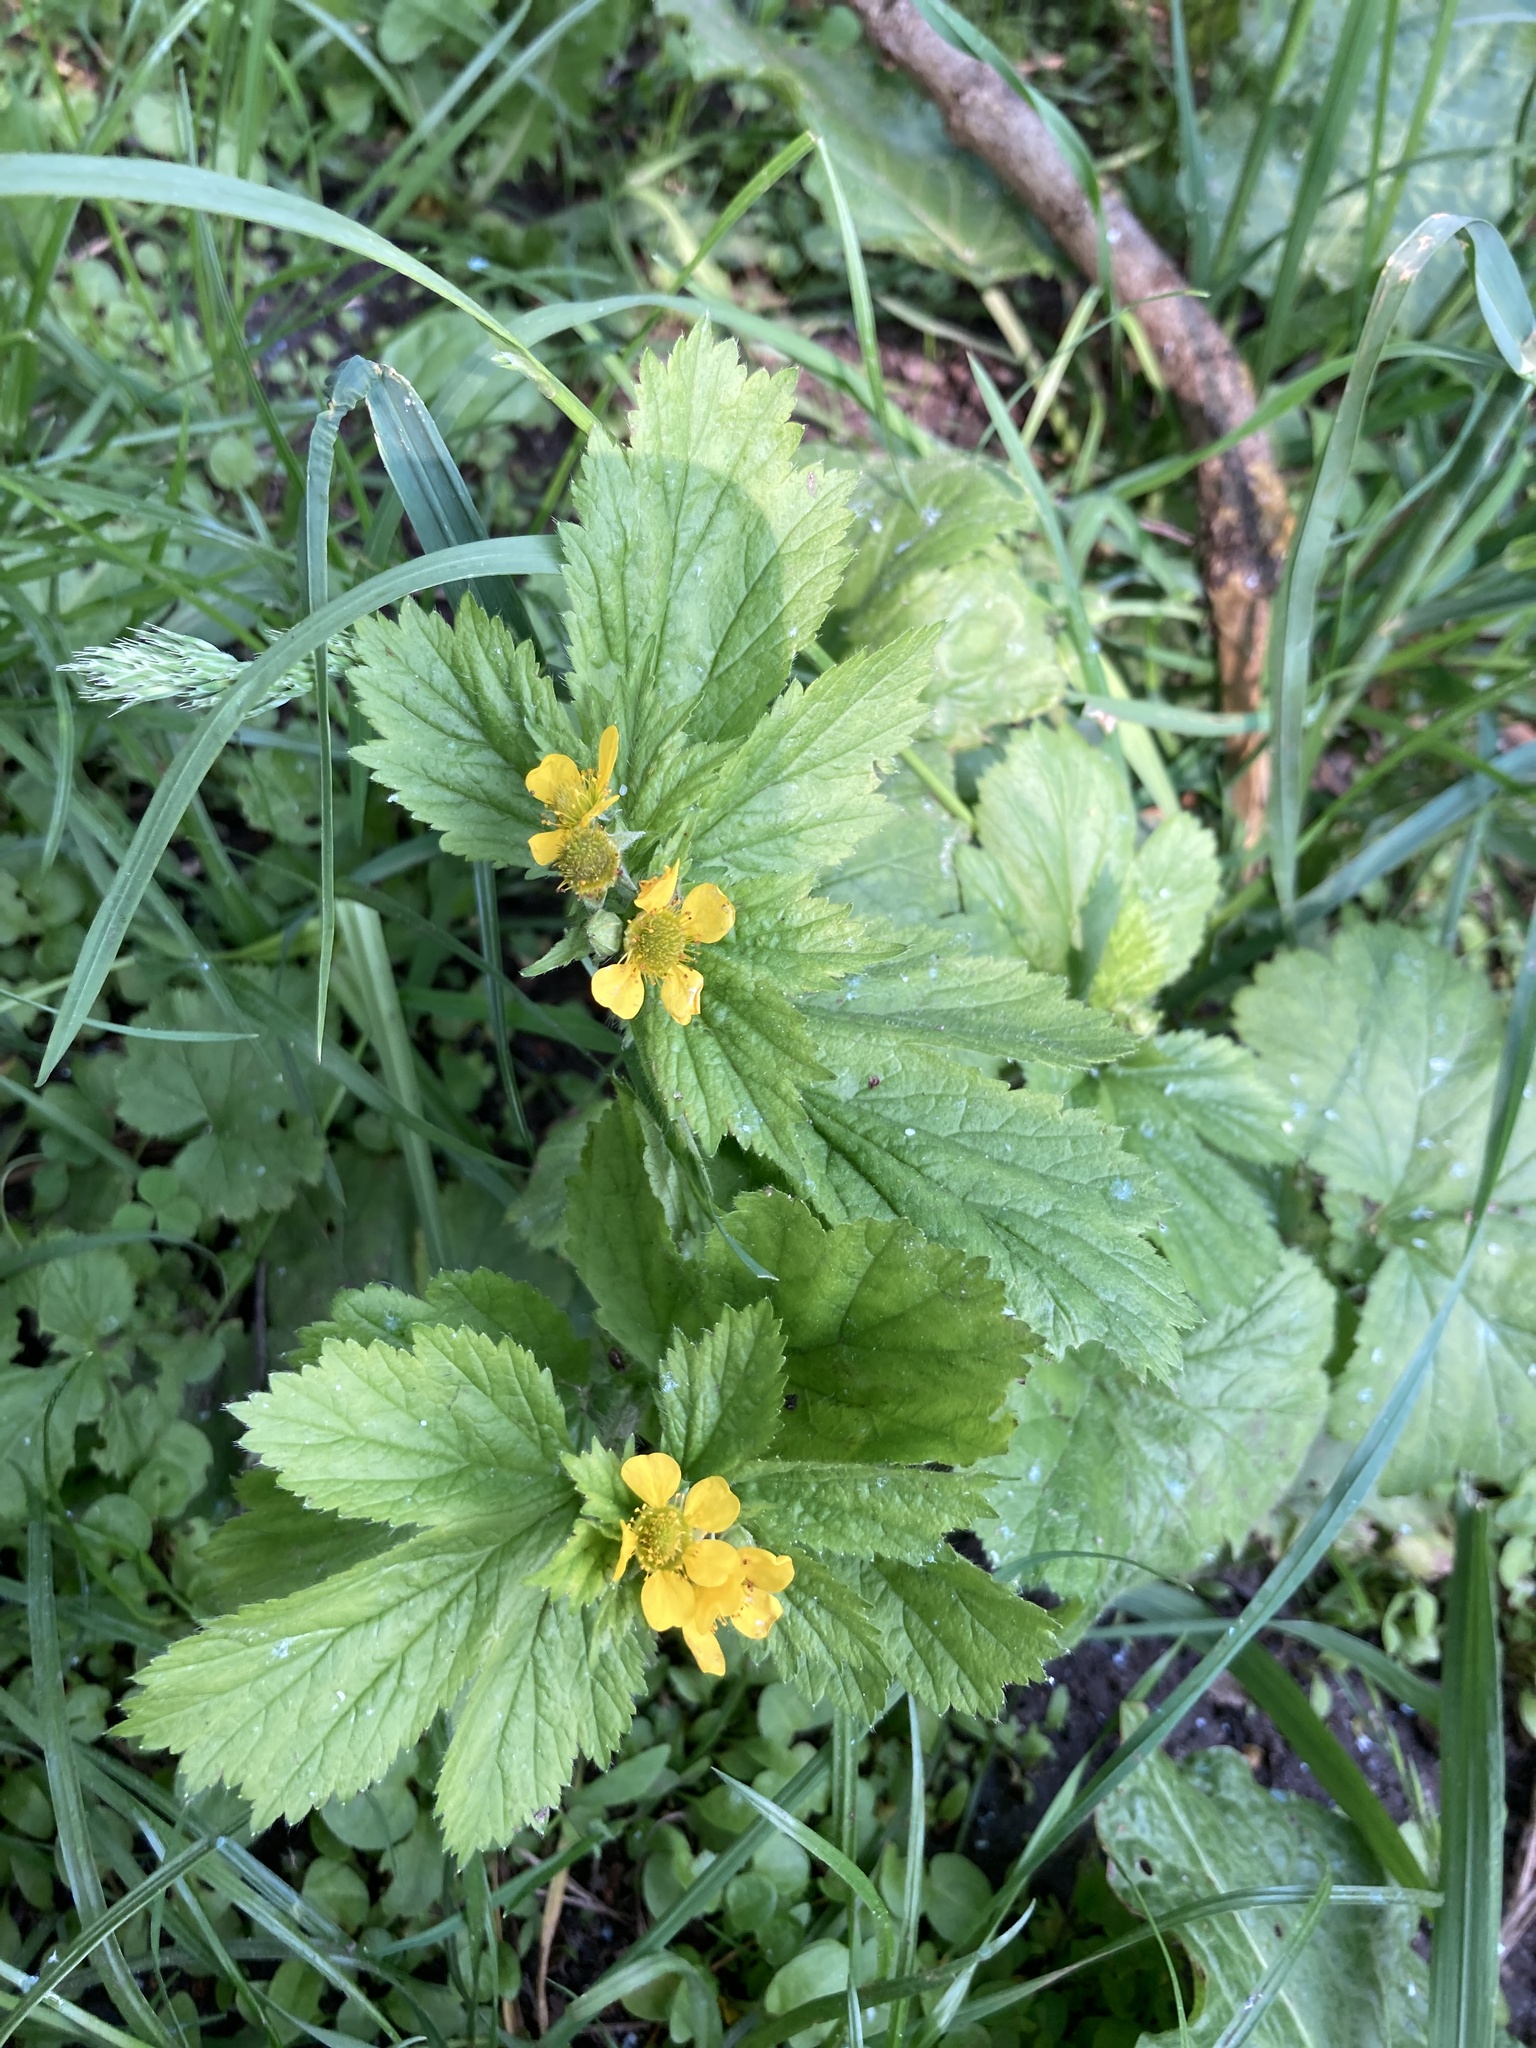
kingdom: Plantae
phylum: Tracheophyta
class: Magnoliopsida
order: Rosales
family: Rosaceae
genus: Geum
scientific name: Geum macrophyllum
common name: Large-leaved avens
